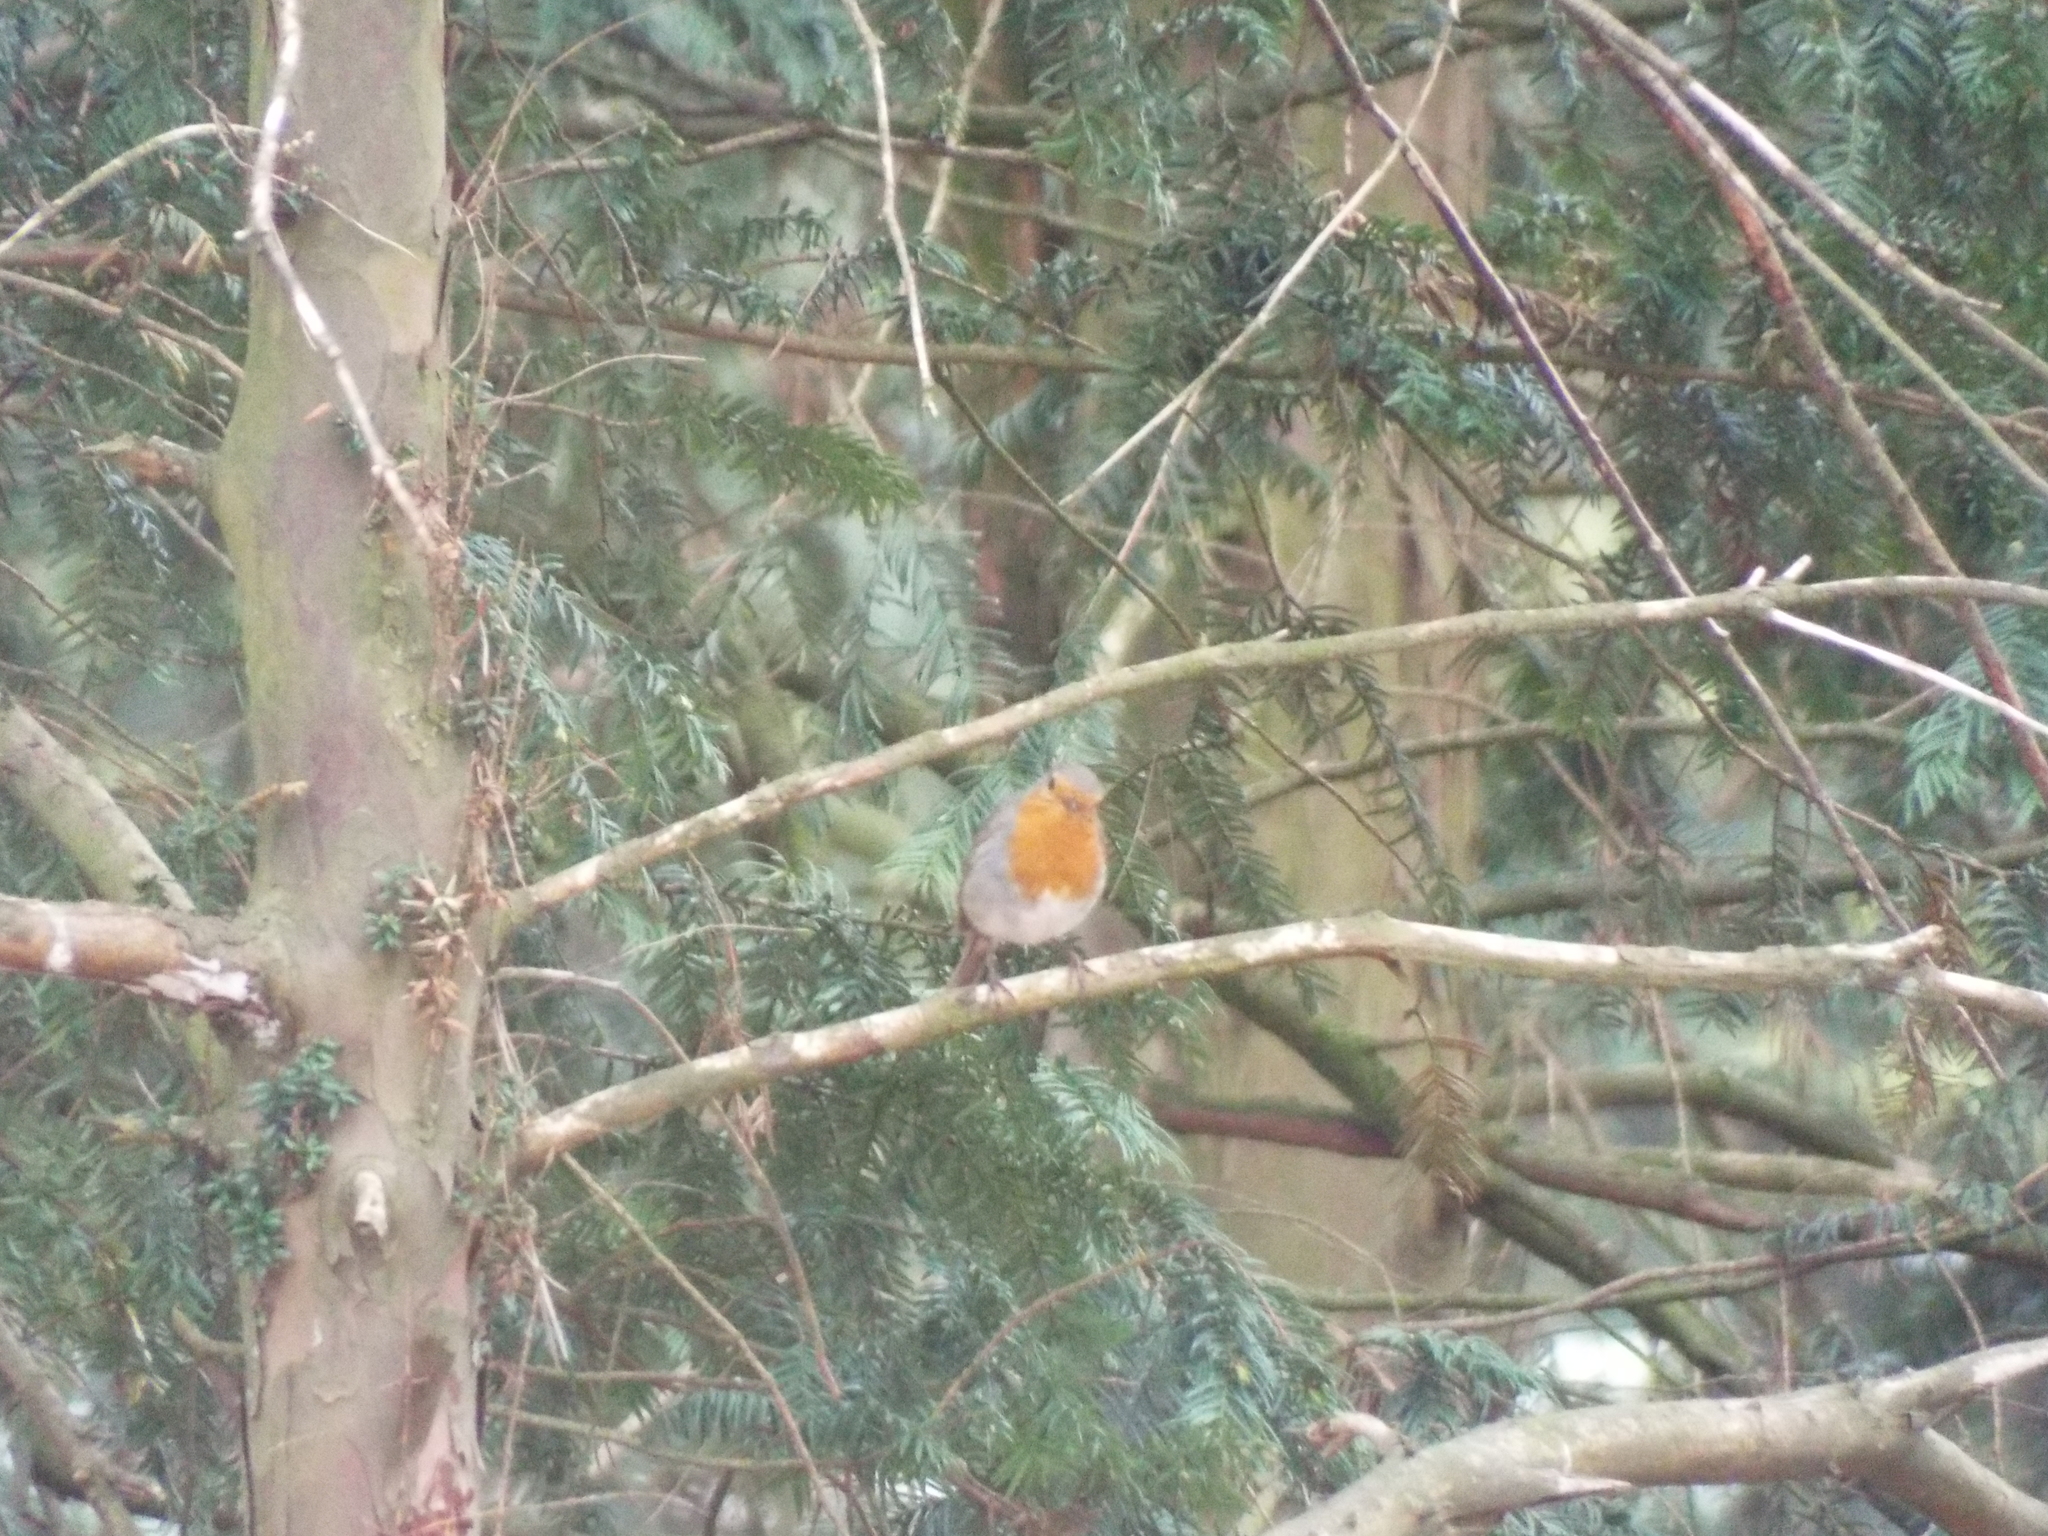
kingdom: Animalia
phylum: Chordata
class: Aves
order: Passeriformes
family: Muscicapidae
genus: Erithacus
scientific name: Erithacus rubecula
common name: European robin
